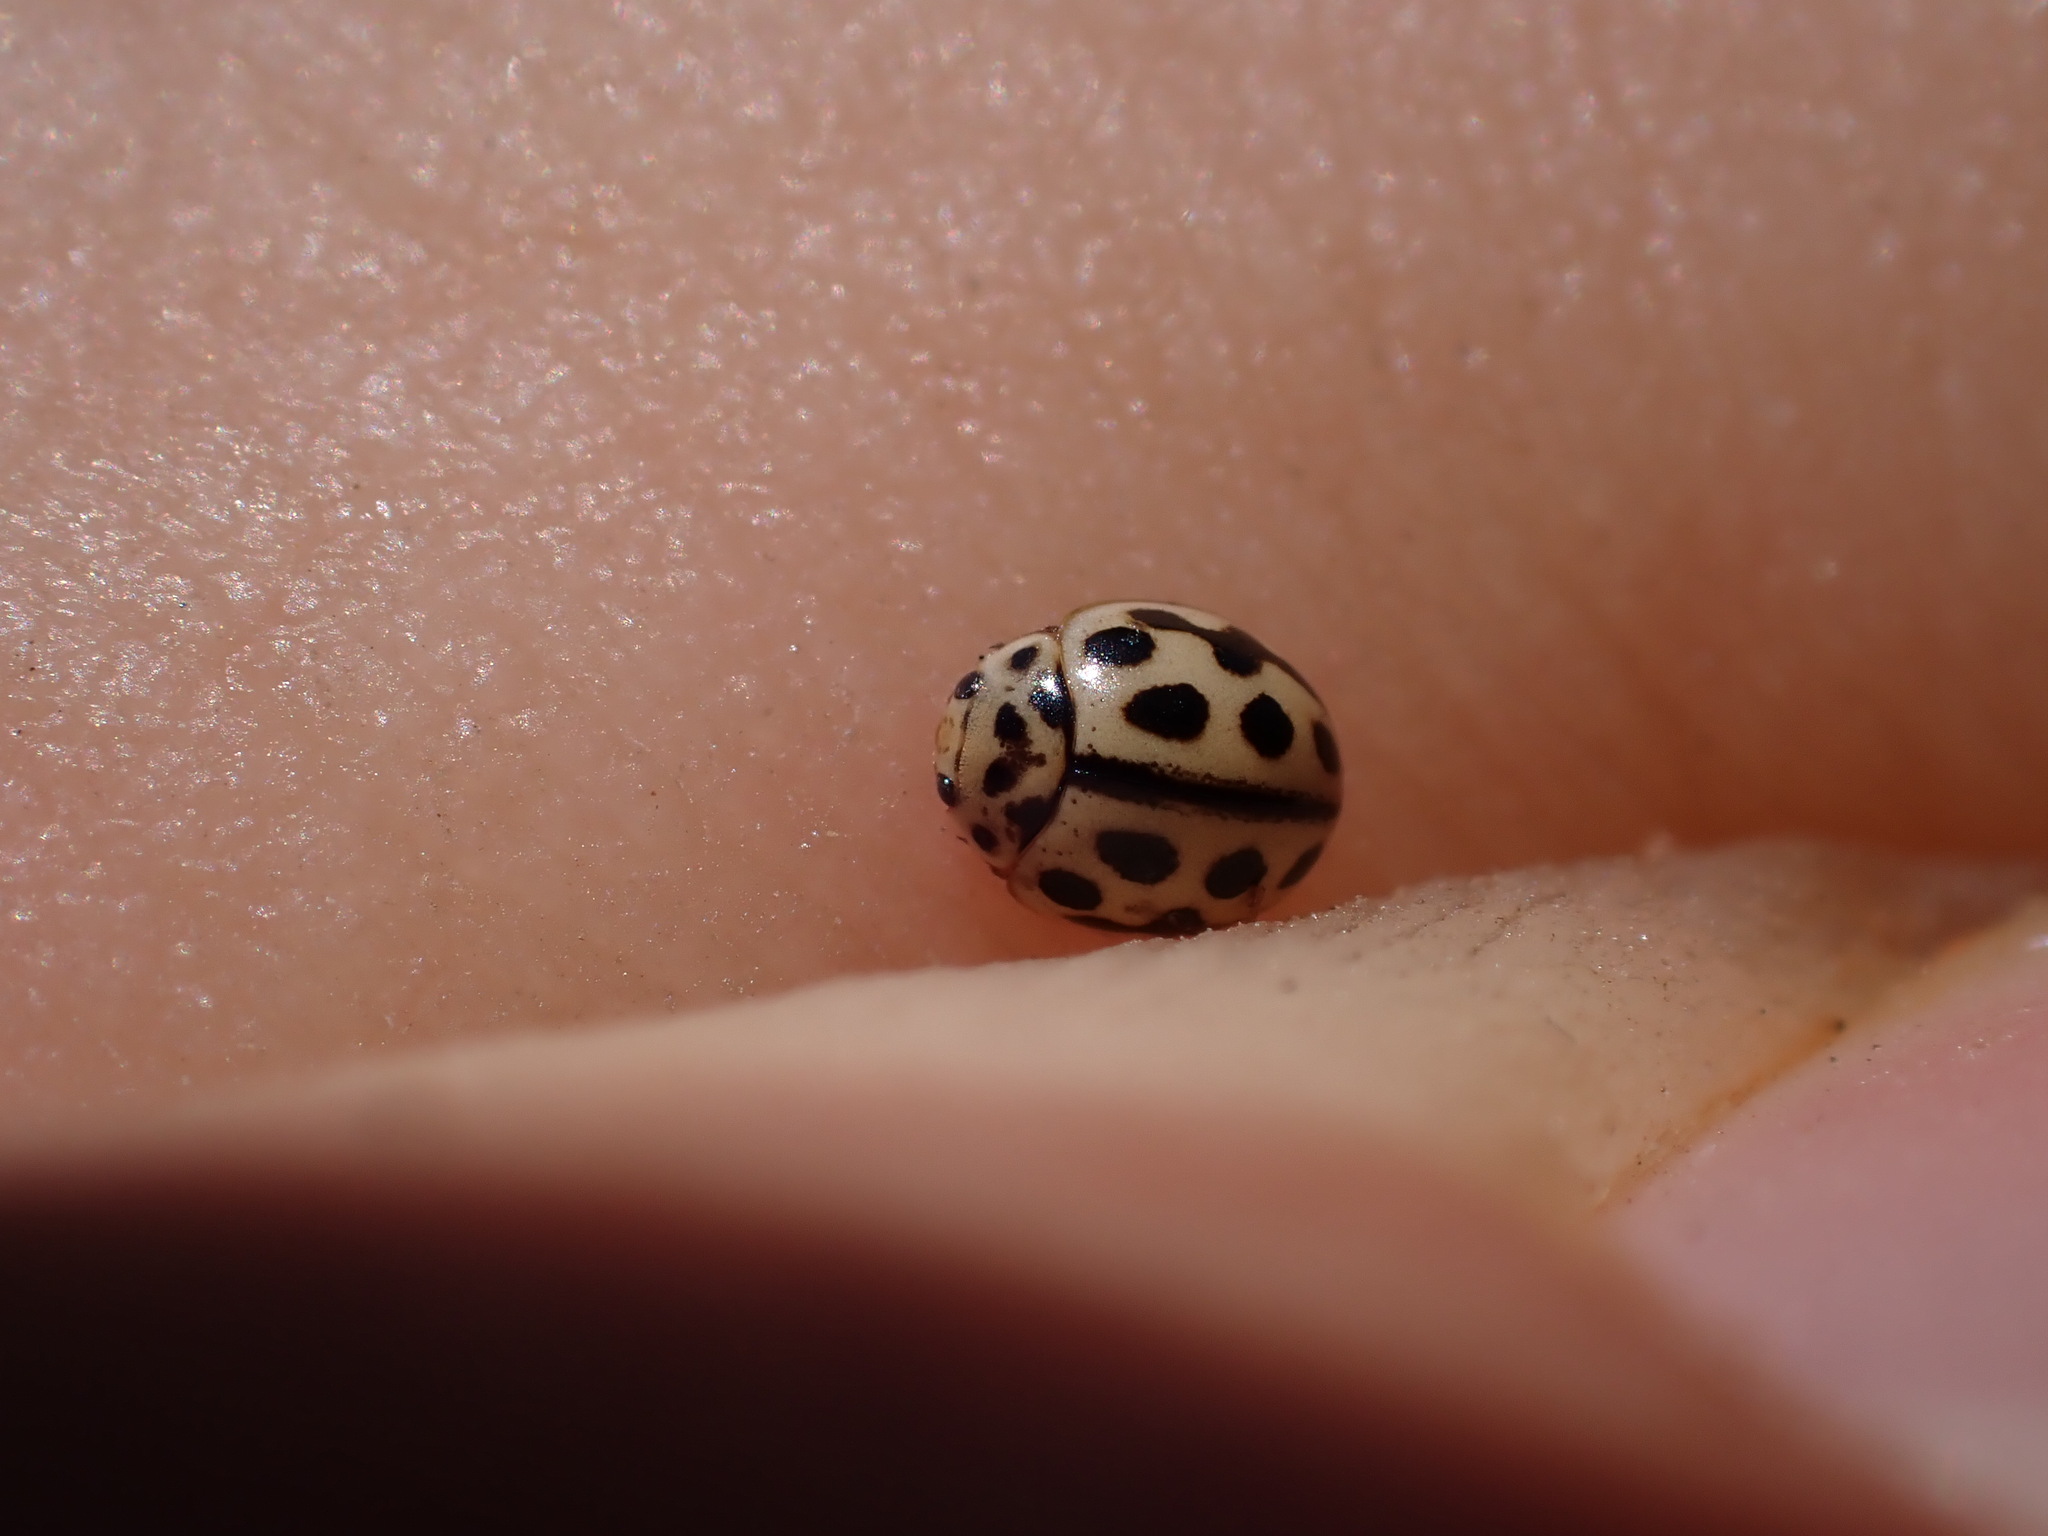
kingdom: Animalia
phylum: Arthropoda
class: Insecta
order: Coleoptera
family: Coccinellidae
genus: Tytthaspis
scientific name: Tytthaspis sedecimpunctata
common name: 16-spot ladybird
